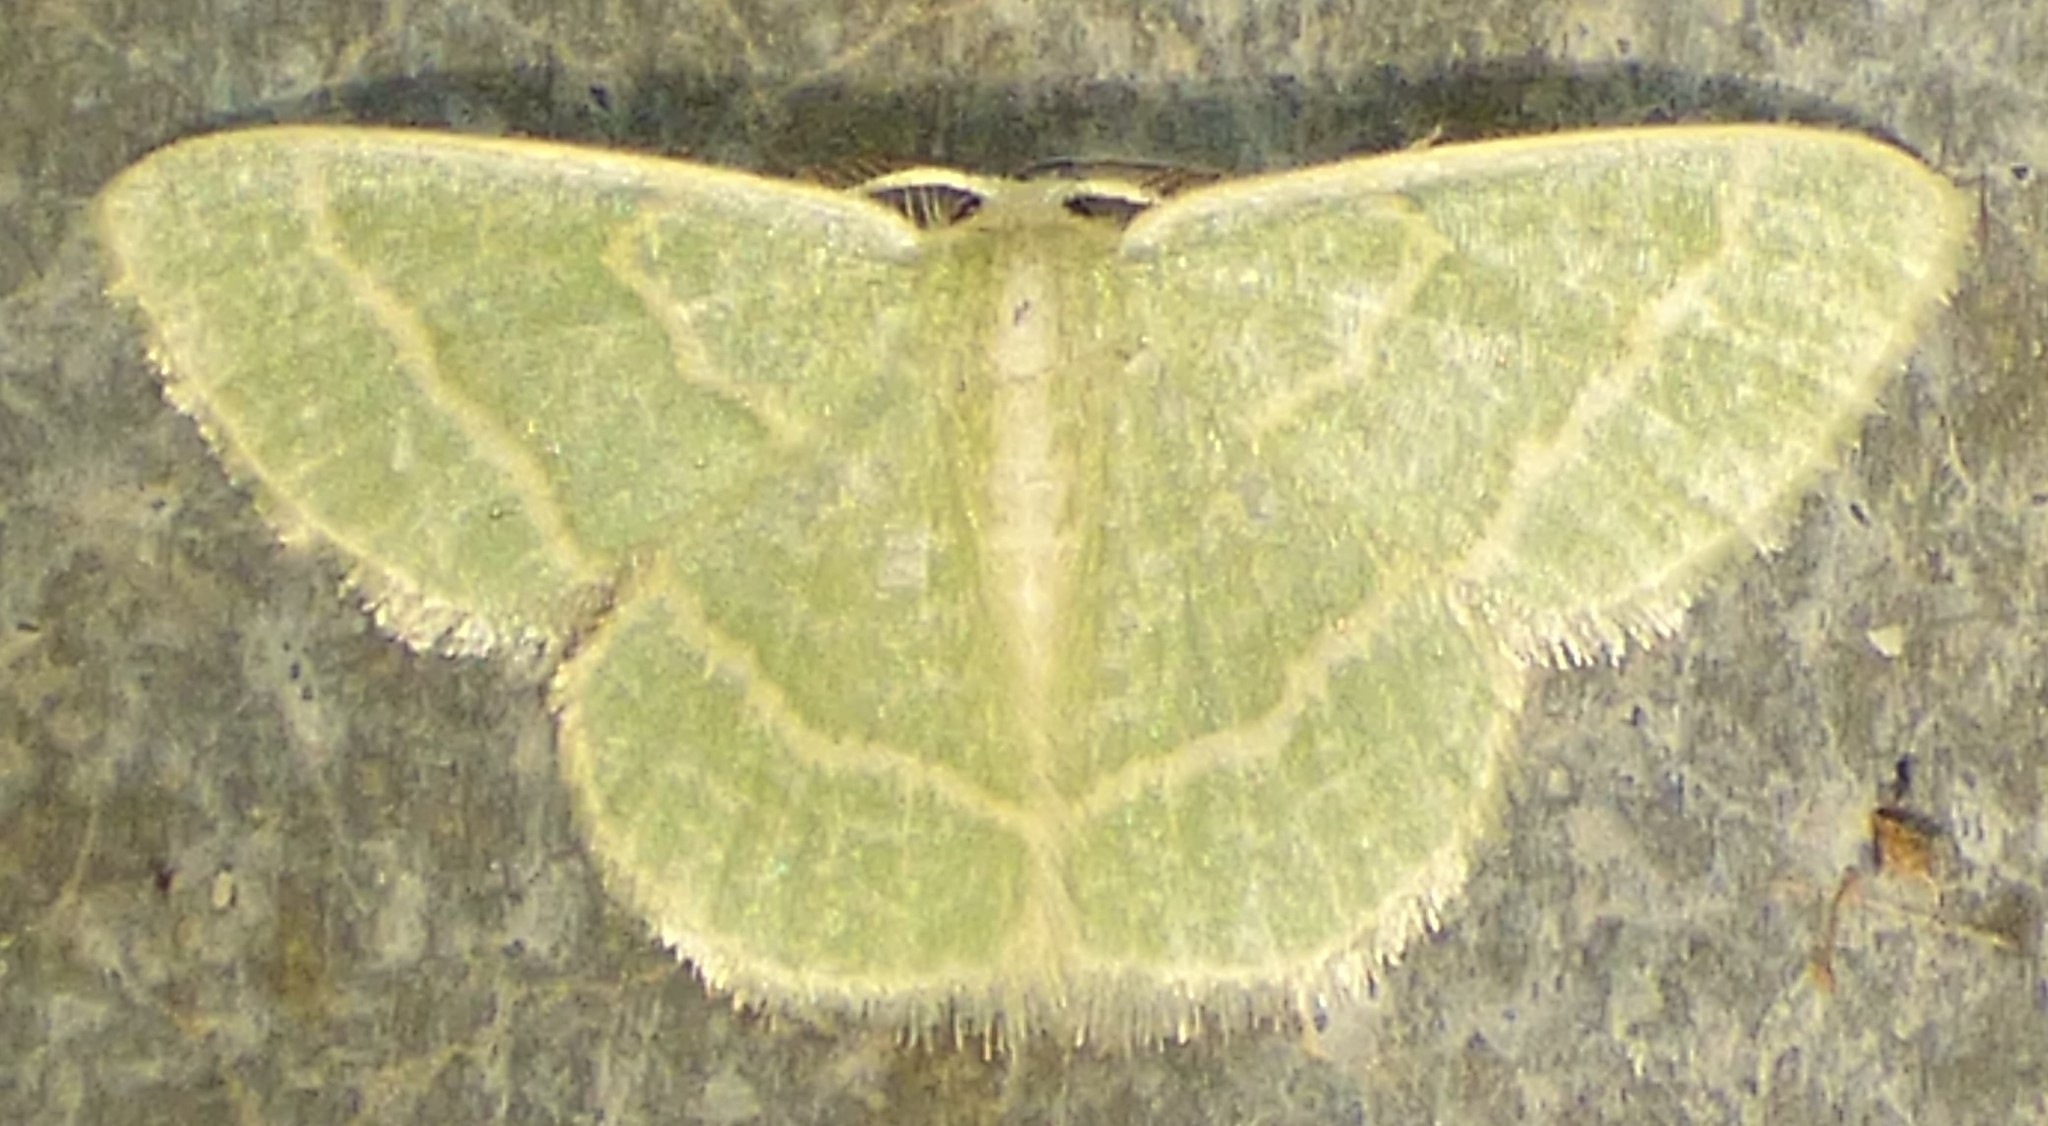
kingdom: Animalia
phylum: Arthropoda
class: Insecta
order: Lepidoptera
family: Geometridae
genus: Chlorochlamys
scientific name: Chlorochlamys chloroleucaria
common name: Blackberry looper
